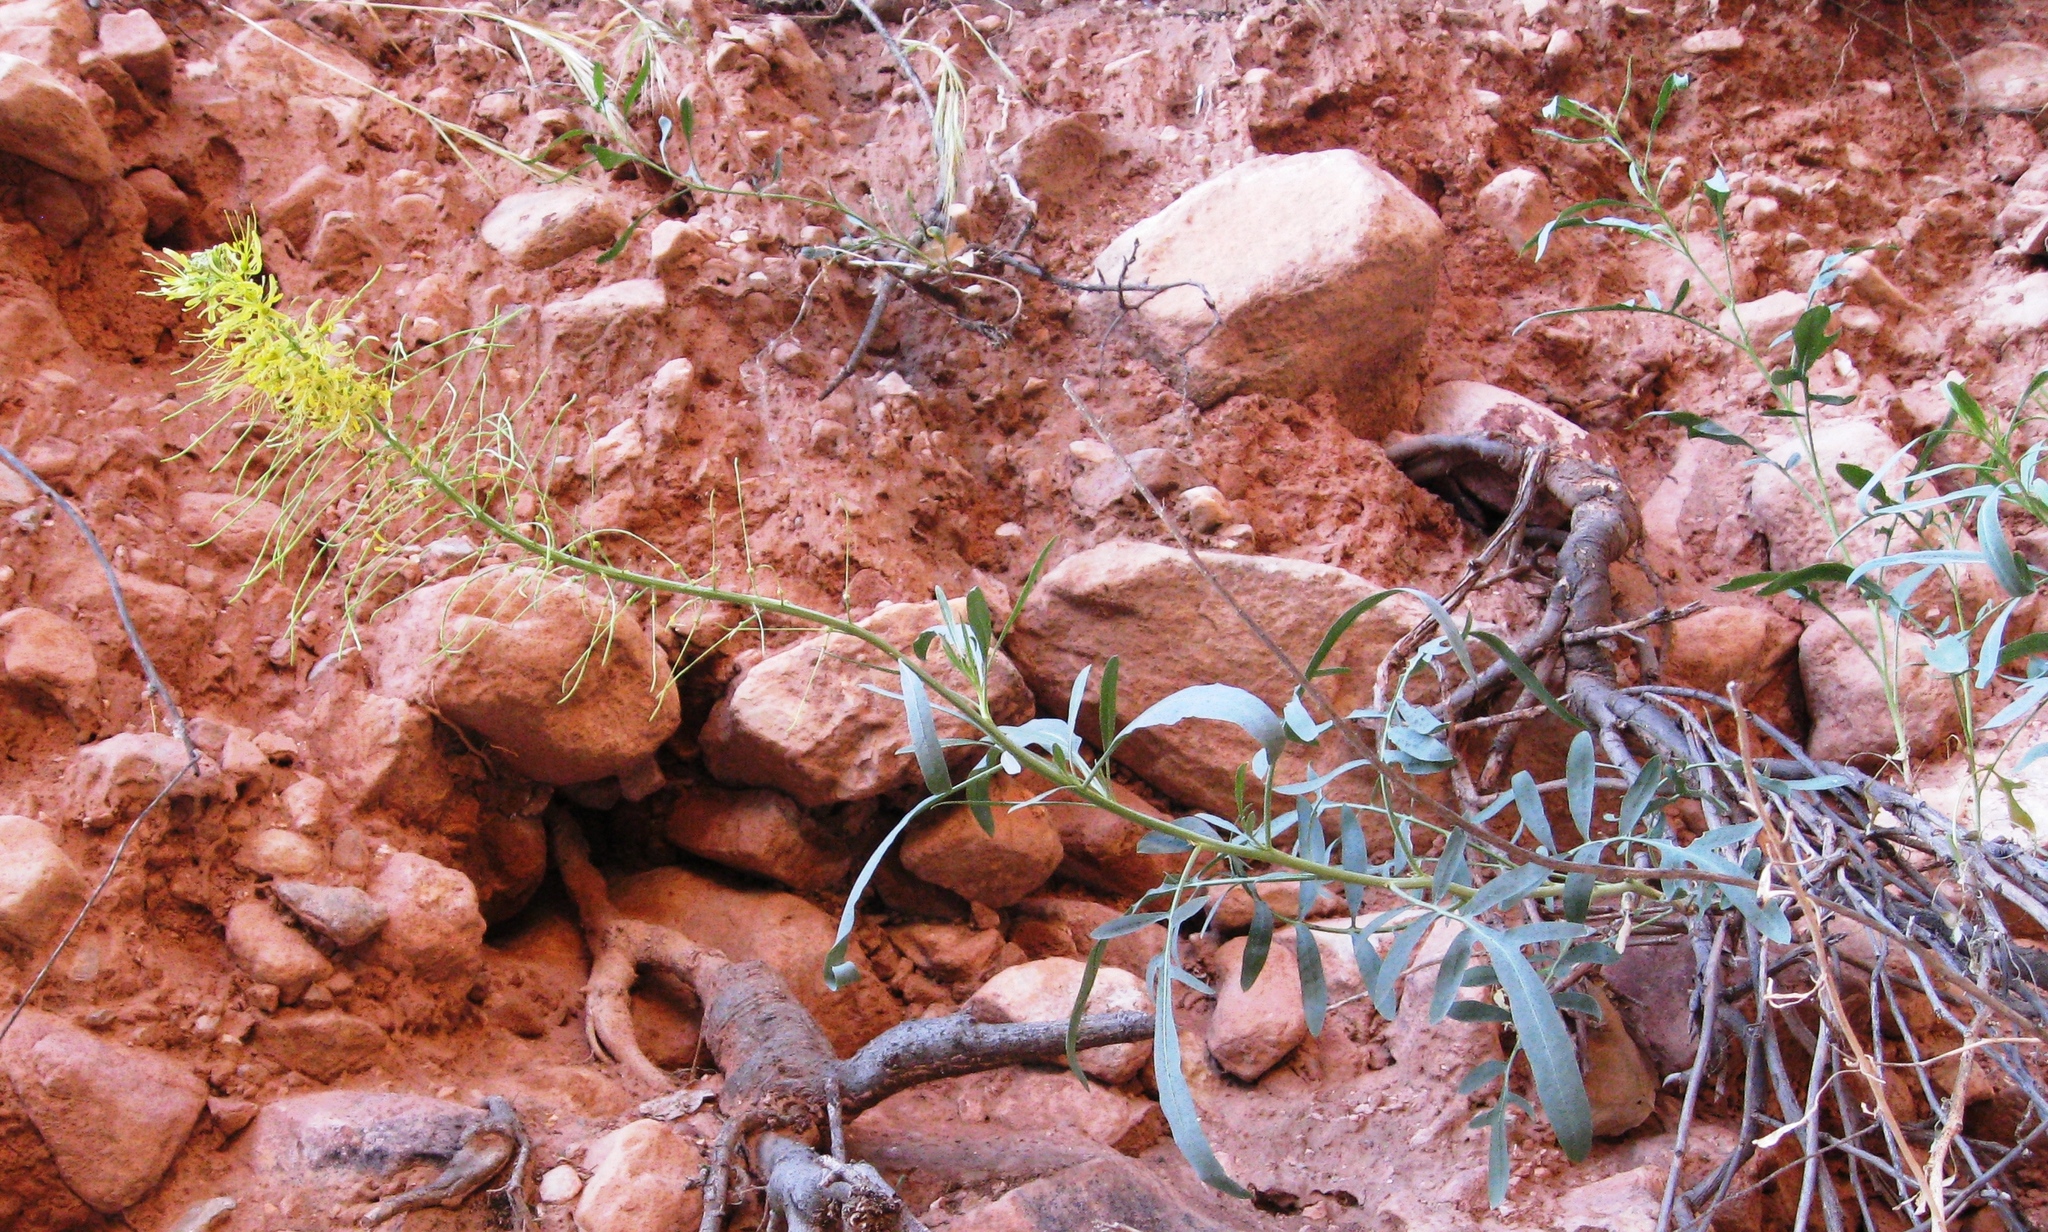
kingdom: Plantae
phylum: Tracheophyta
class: Magnoliopsida
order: Brassicales
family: Brassicaceae
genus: Stanleya
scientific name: Stanleya pinnata
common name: Prince's-plume
